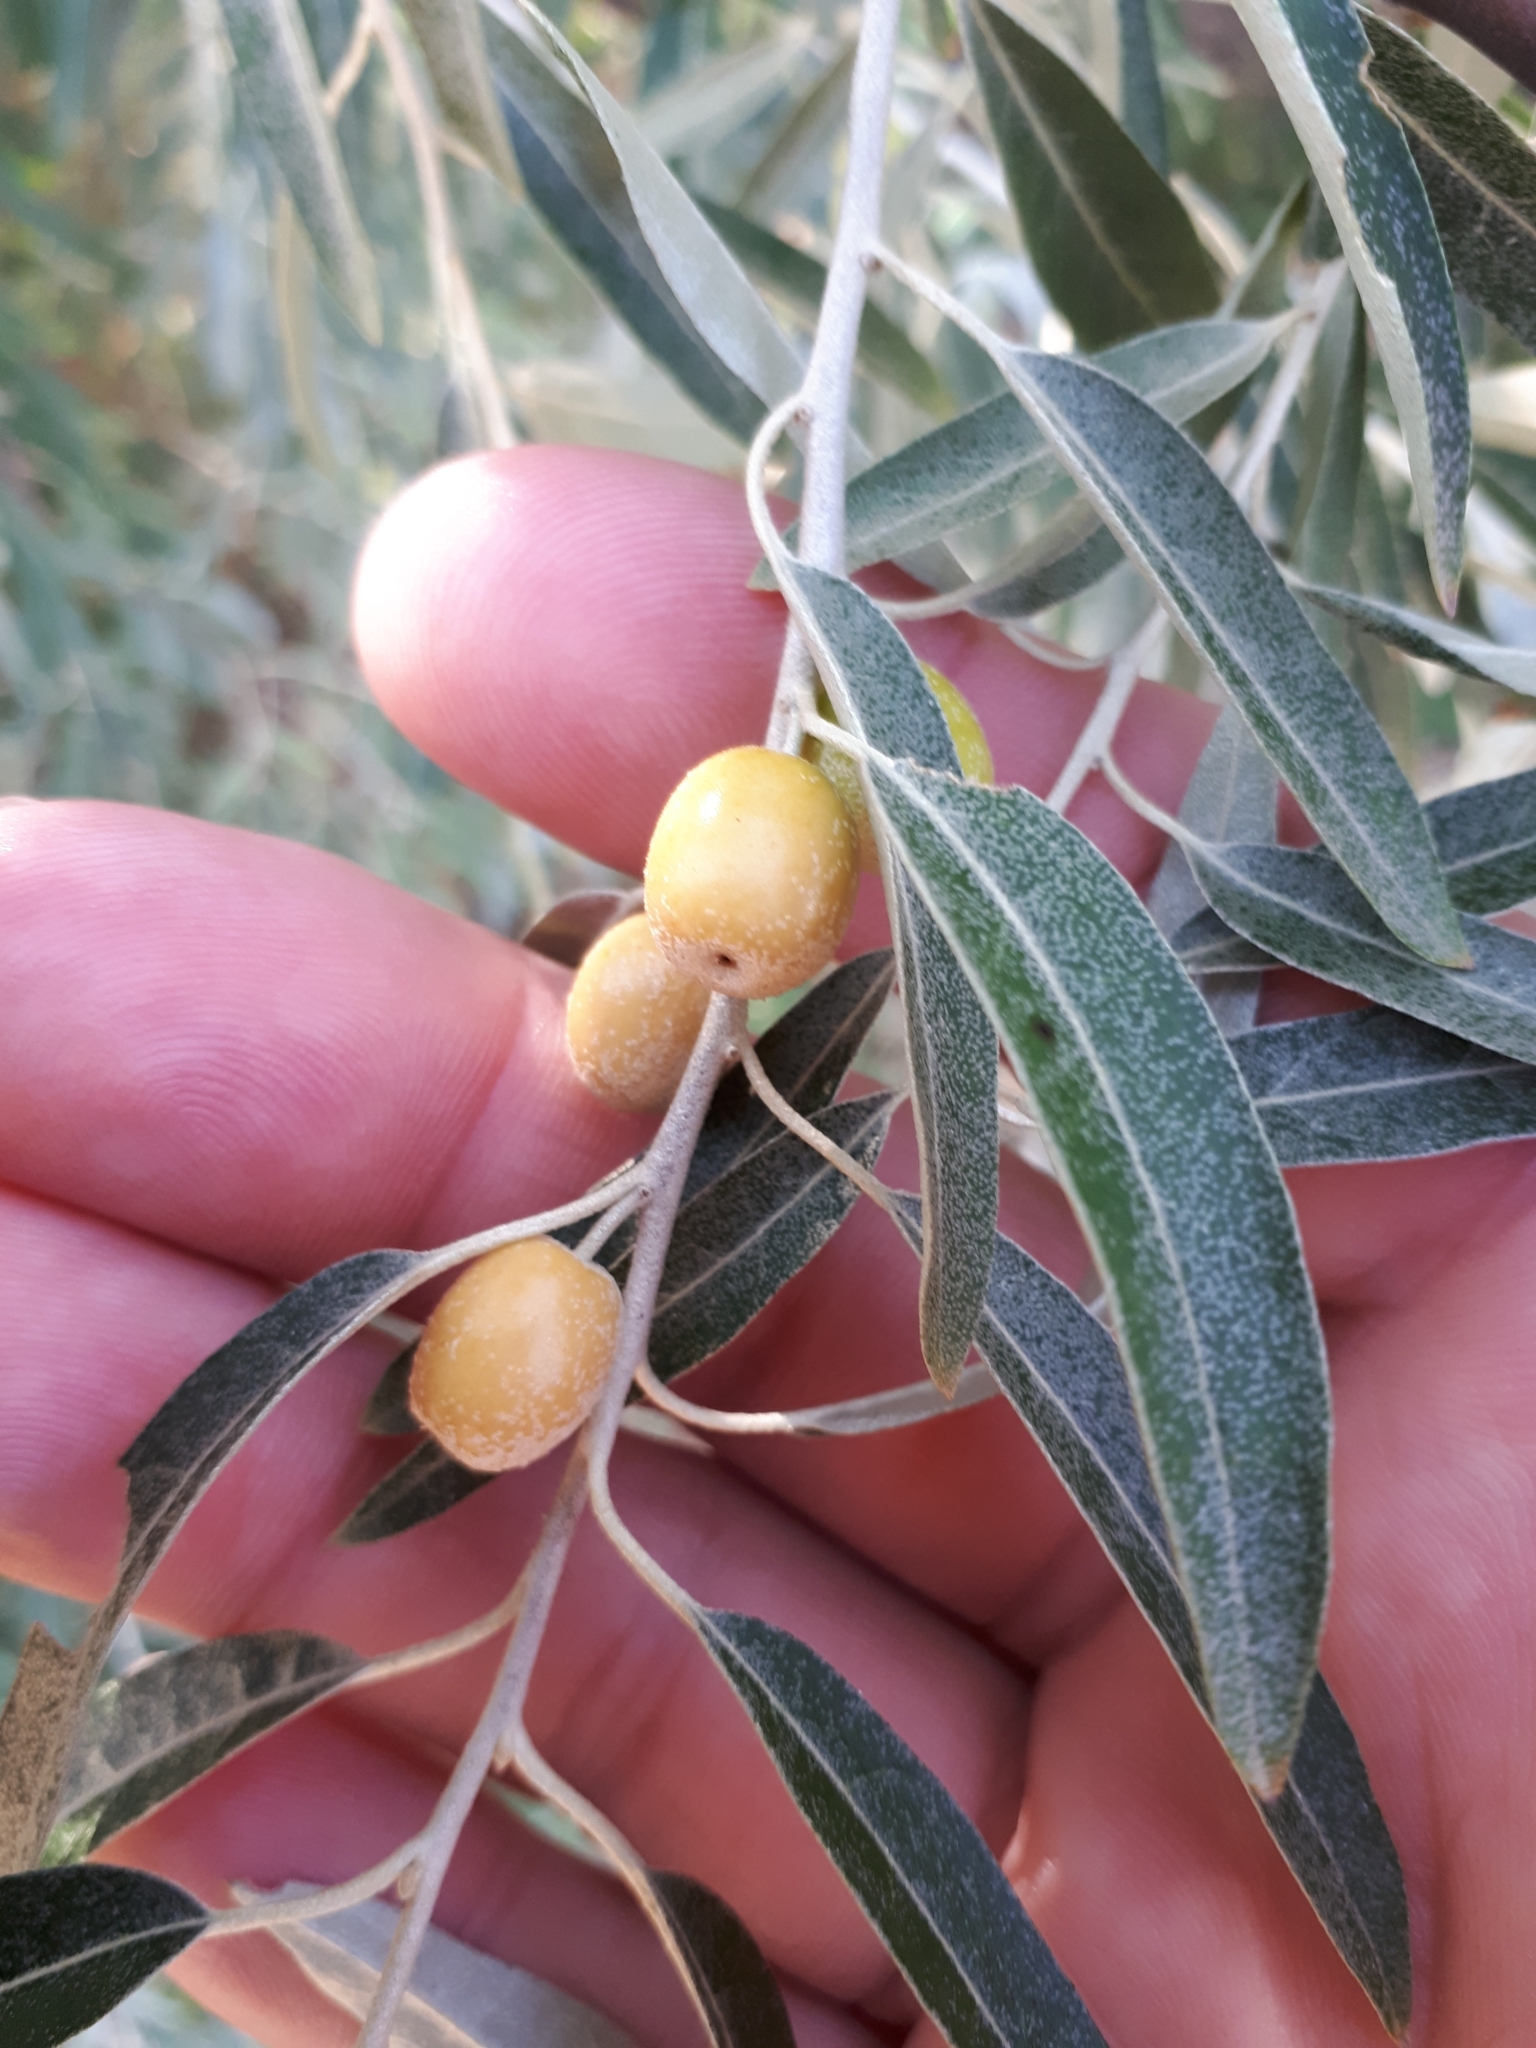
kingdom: Plantae
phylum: Tracheophyta
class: Magnoliopsida
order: Rosales
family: Elaeagnaceae
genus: Elaeagnus
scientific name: Elaeagnus angustifolia
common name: Russian olive
